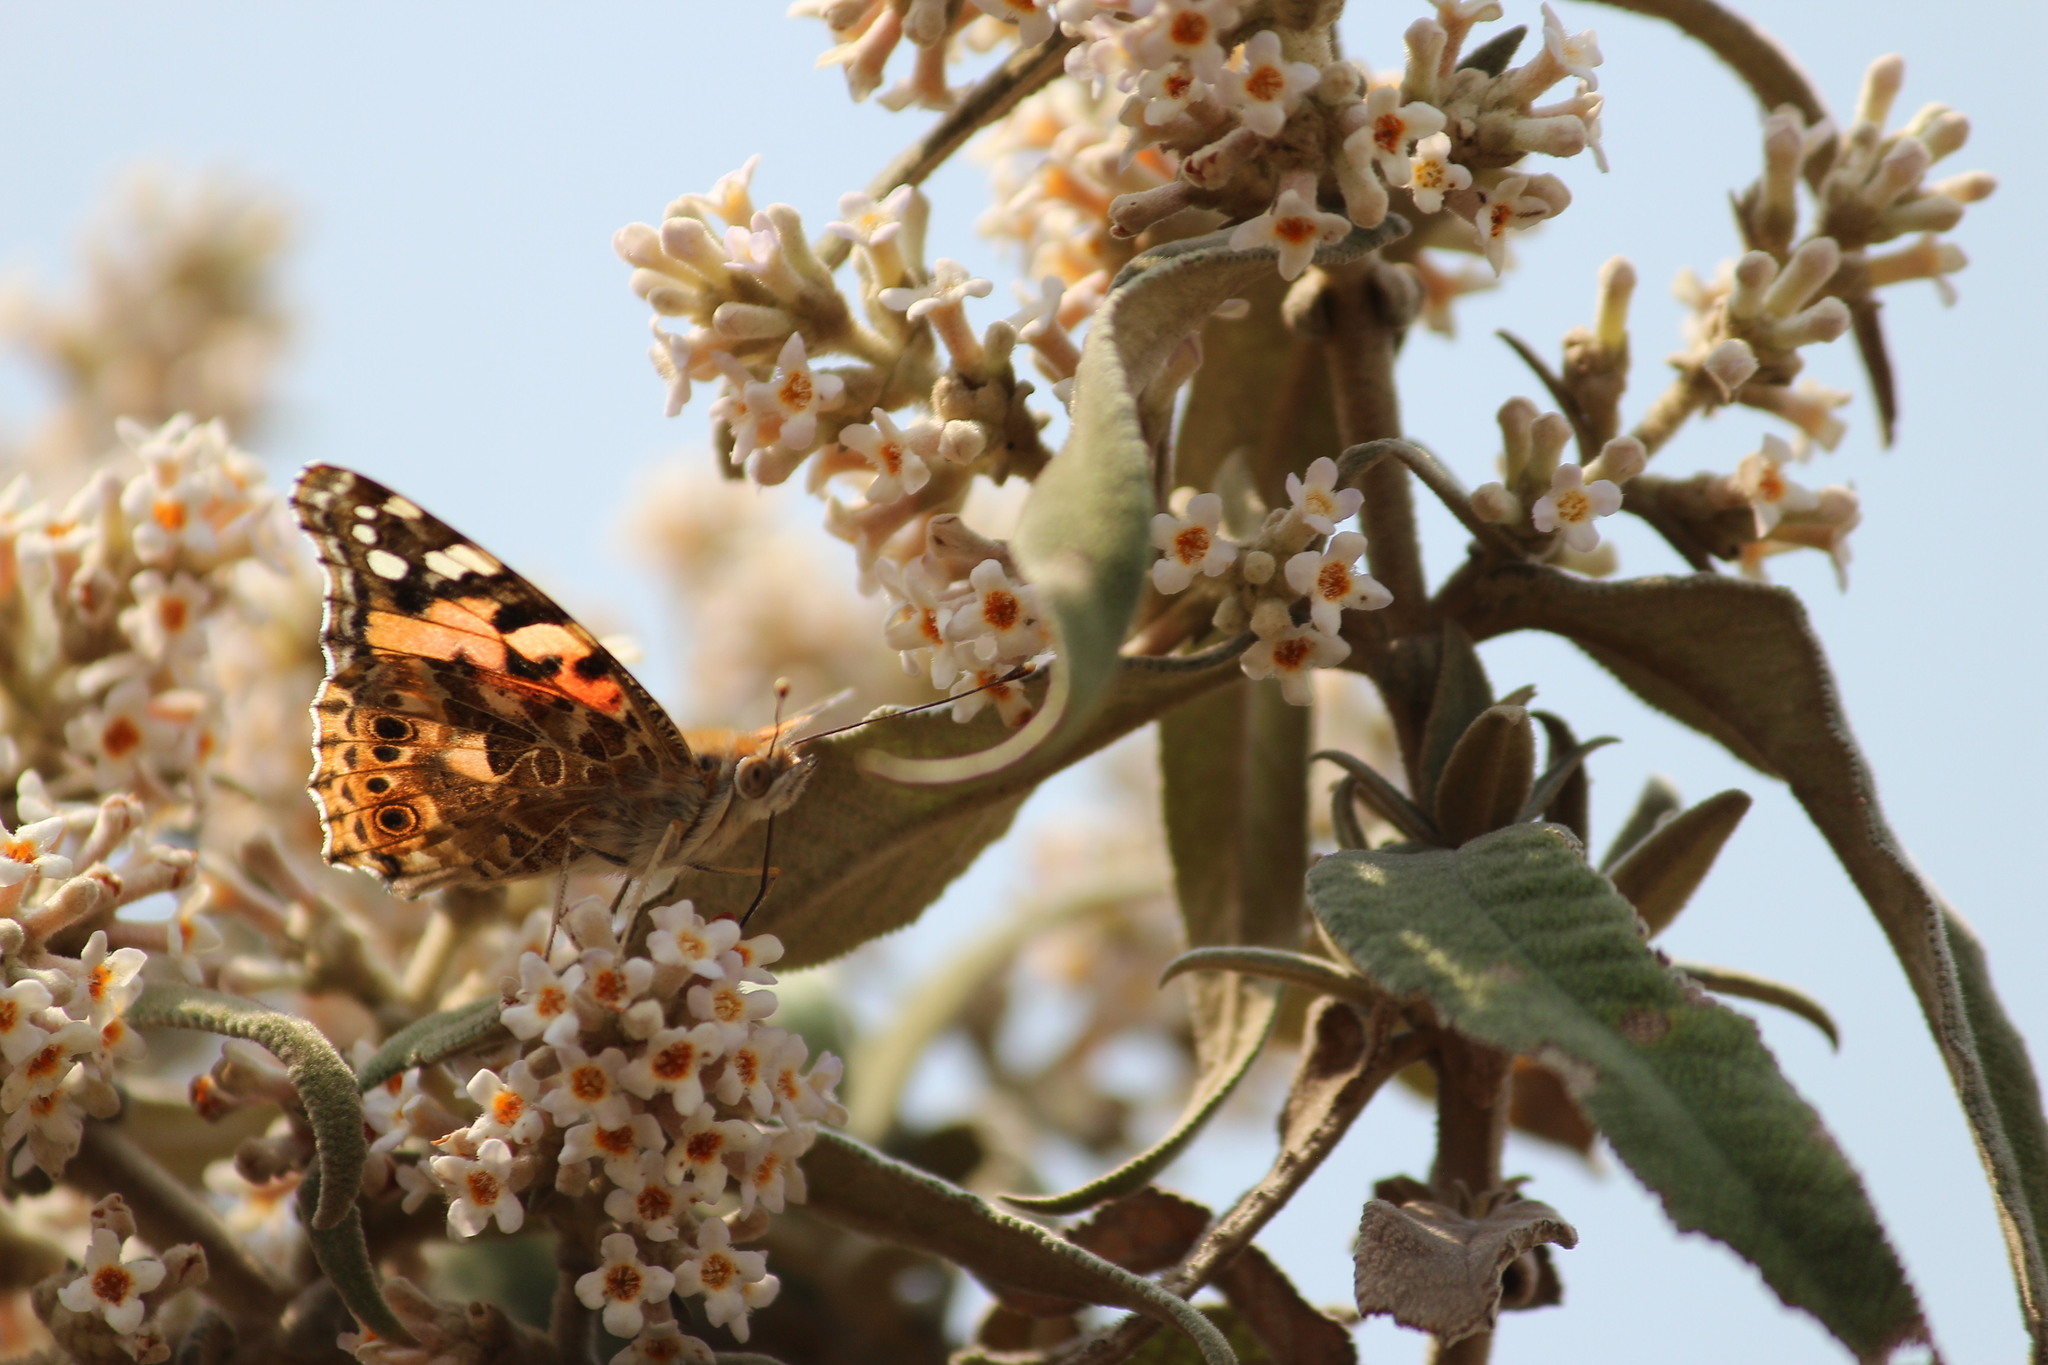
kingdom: Animalia
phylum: Arthropoda
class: Insecta
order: Lepidoptera
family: Nymphalidae
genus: Vanessa
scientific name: Vanessa cardui
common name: Painted lady
